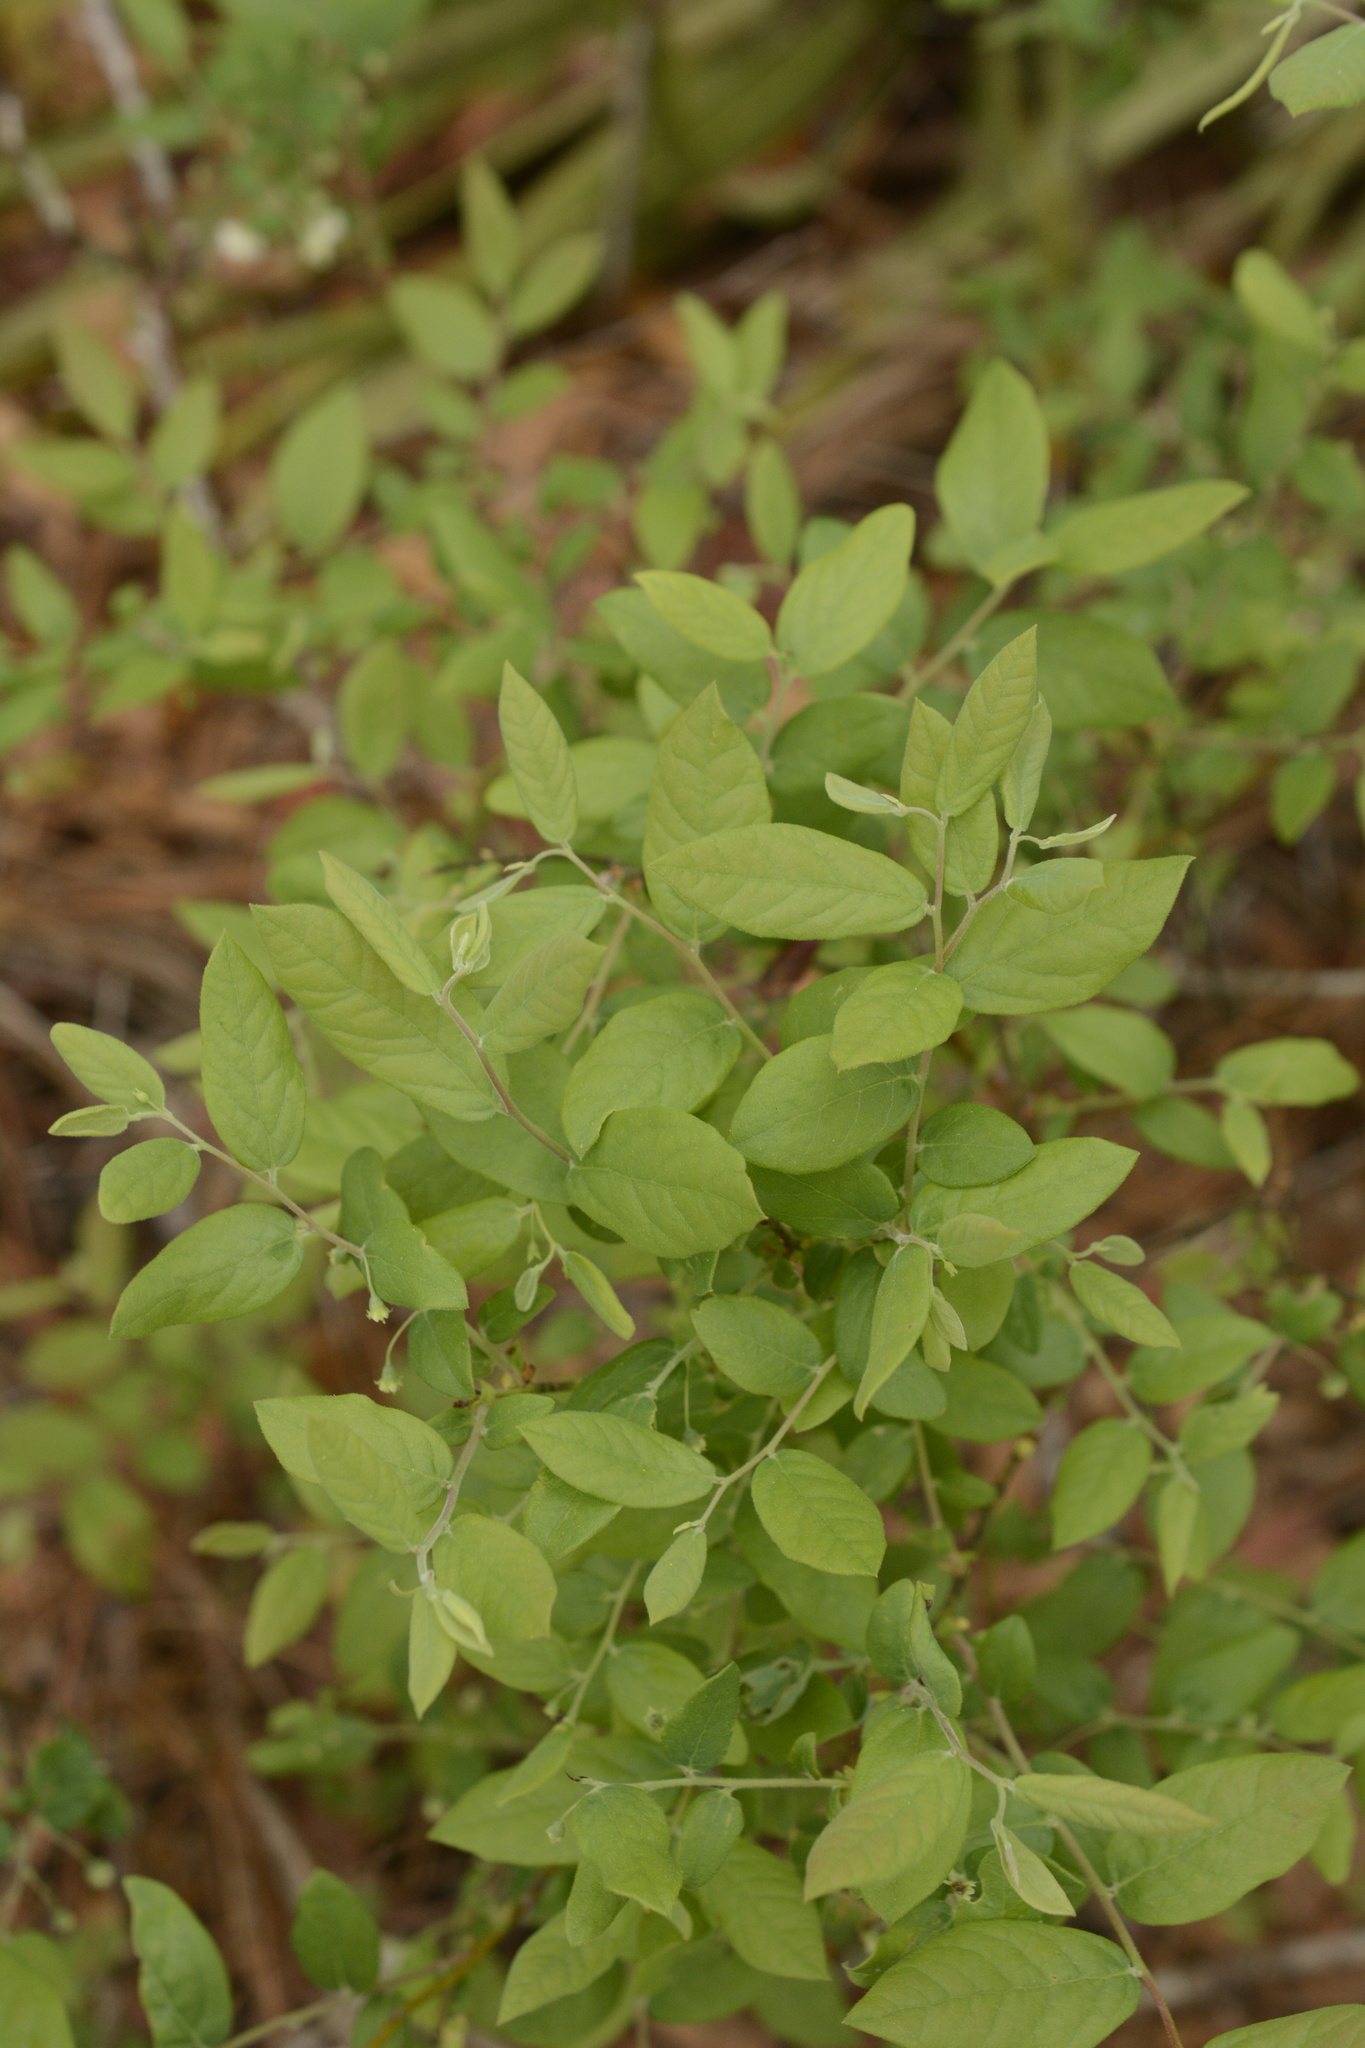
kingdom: Plantae
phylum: Tracheophyta
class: Magnoliopsida
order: Ericales
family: Ericaceae
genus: Vaccinium
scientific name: Vaccinium stamineum
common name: Deerberry
